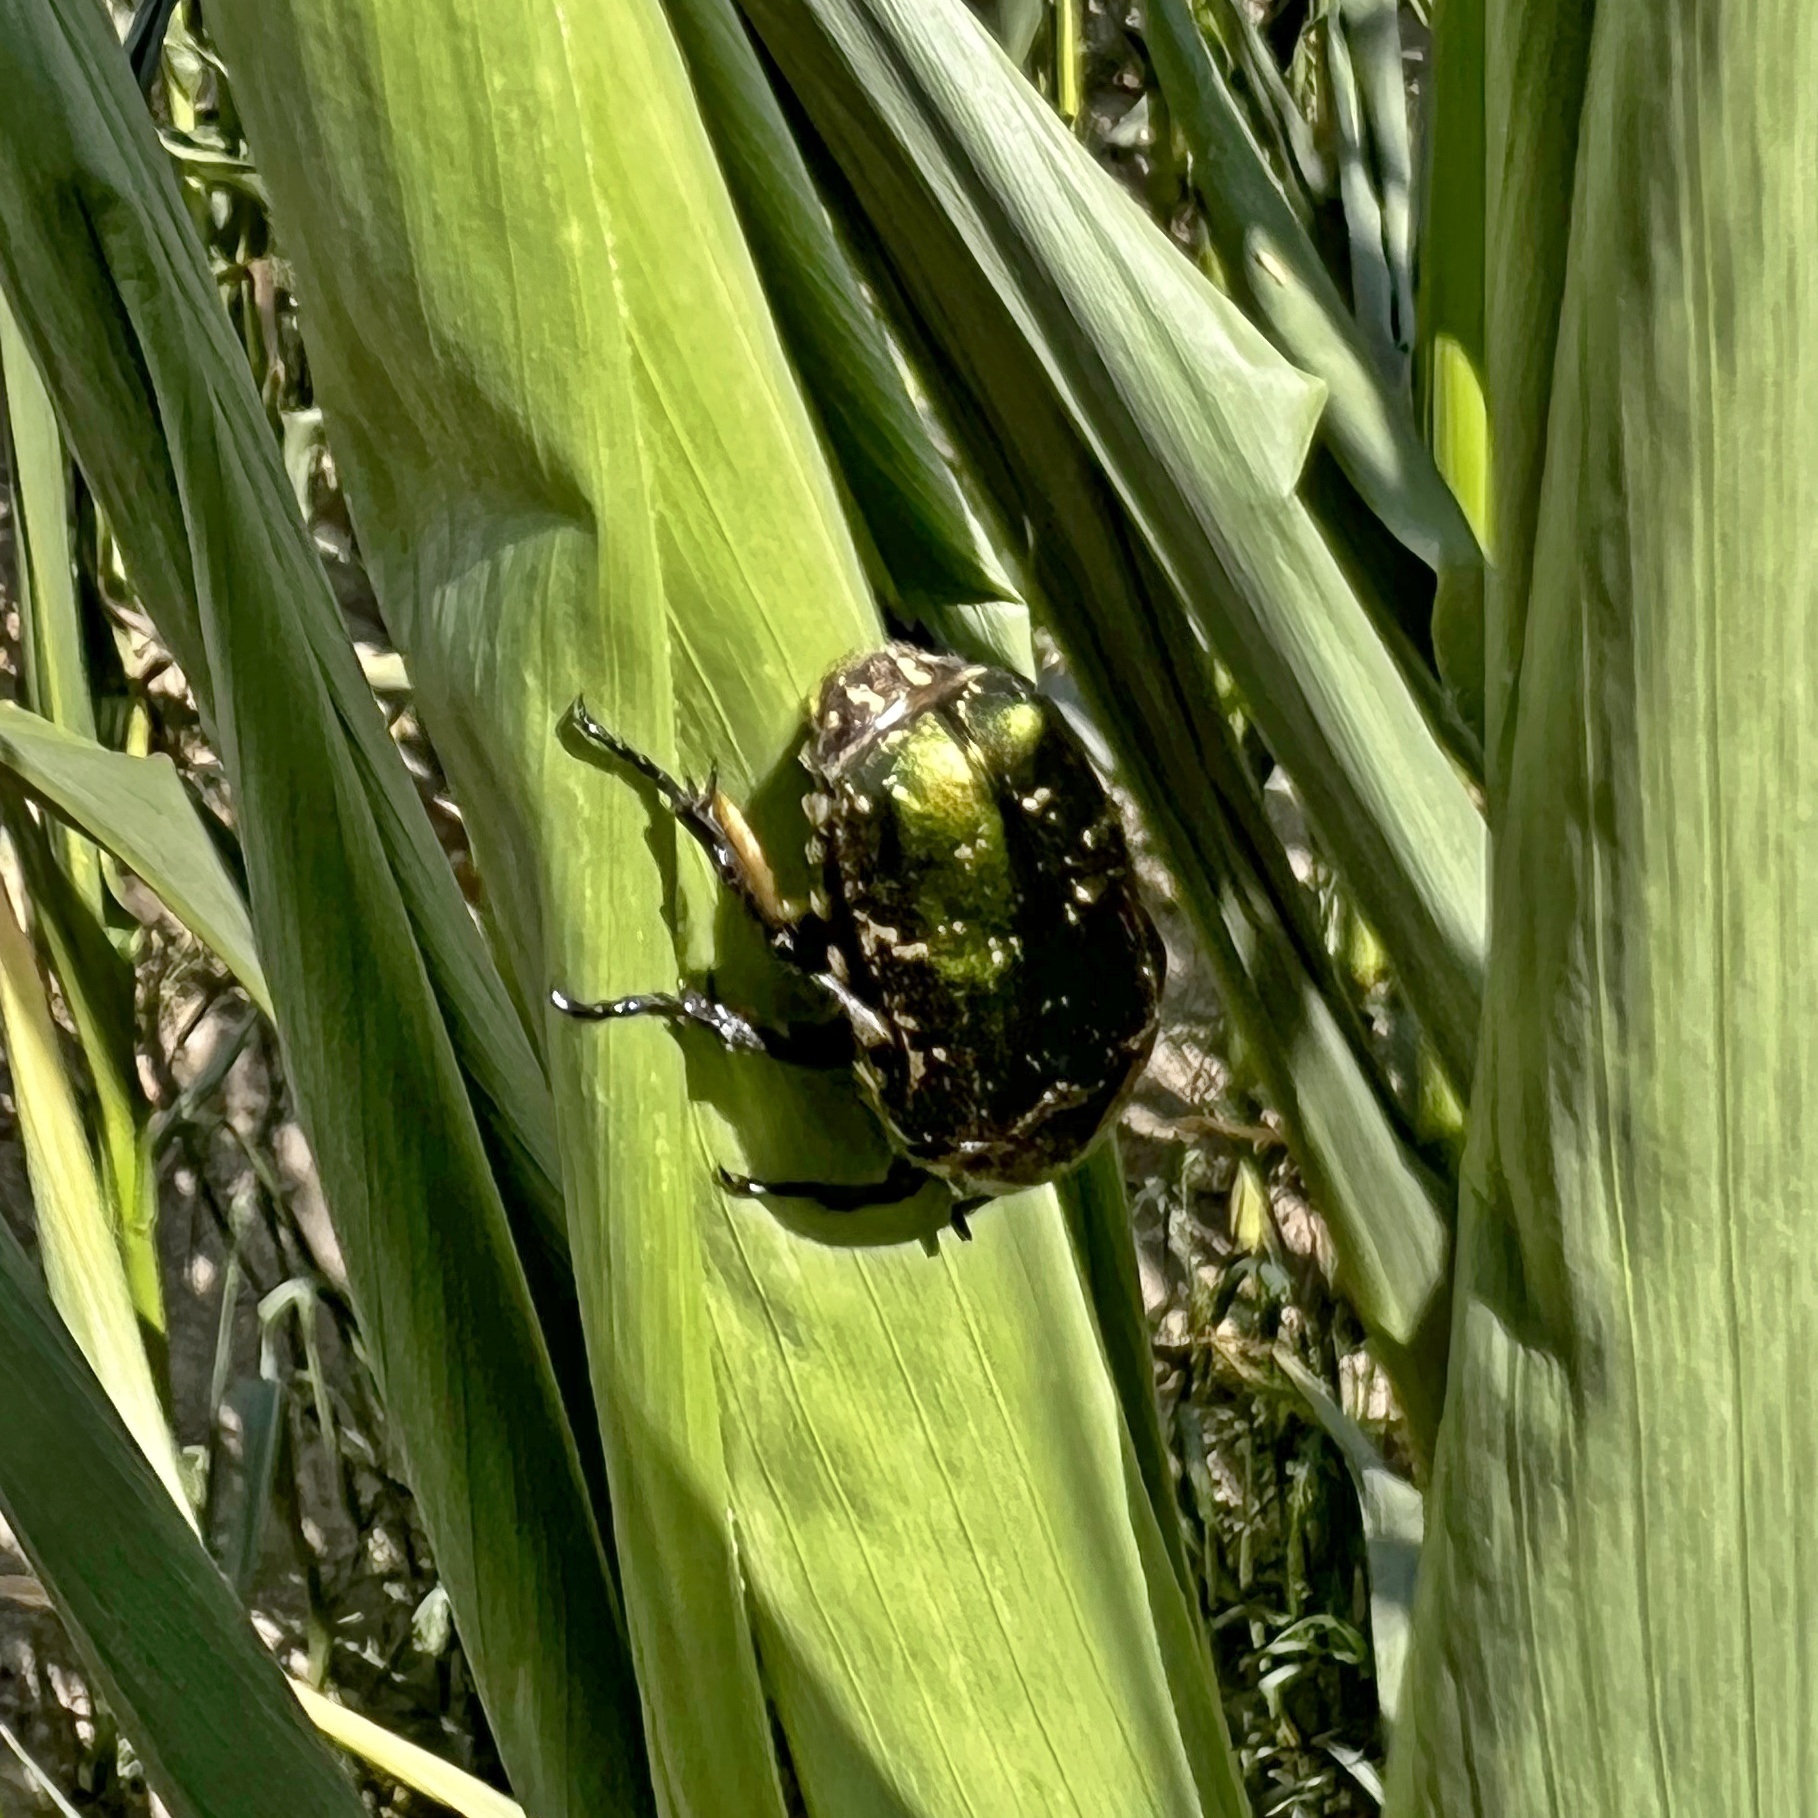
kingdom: Animalia
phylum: Arthropoda
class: Insecta
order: Coleoptera
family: Scarabaeidae
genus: Protaetia
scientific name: Protaetia cuprea
